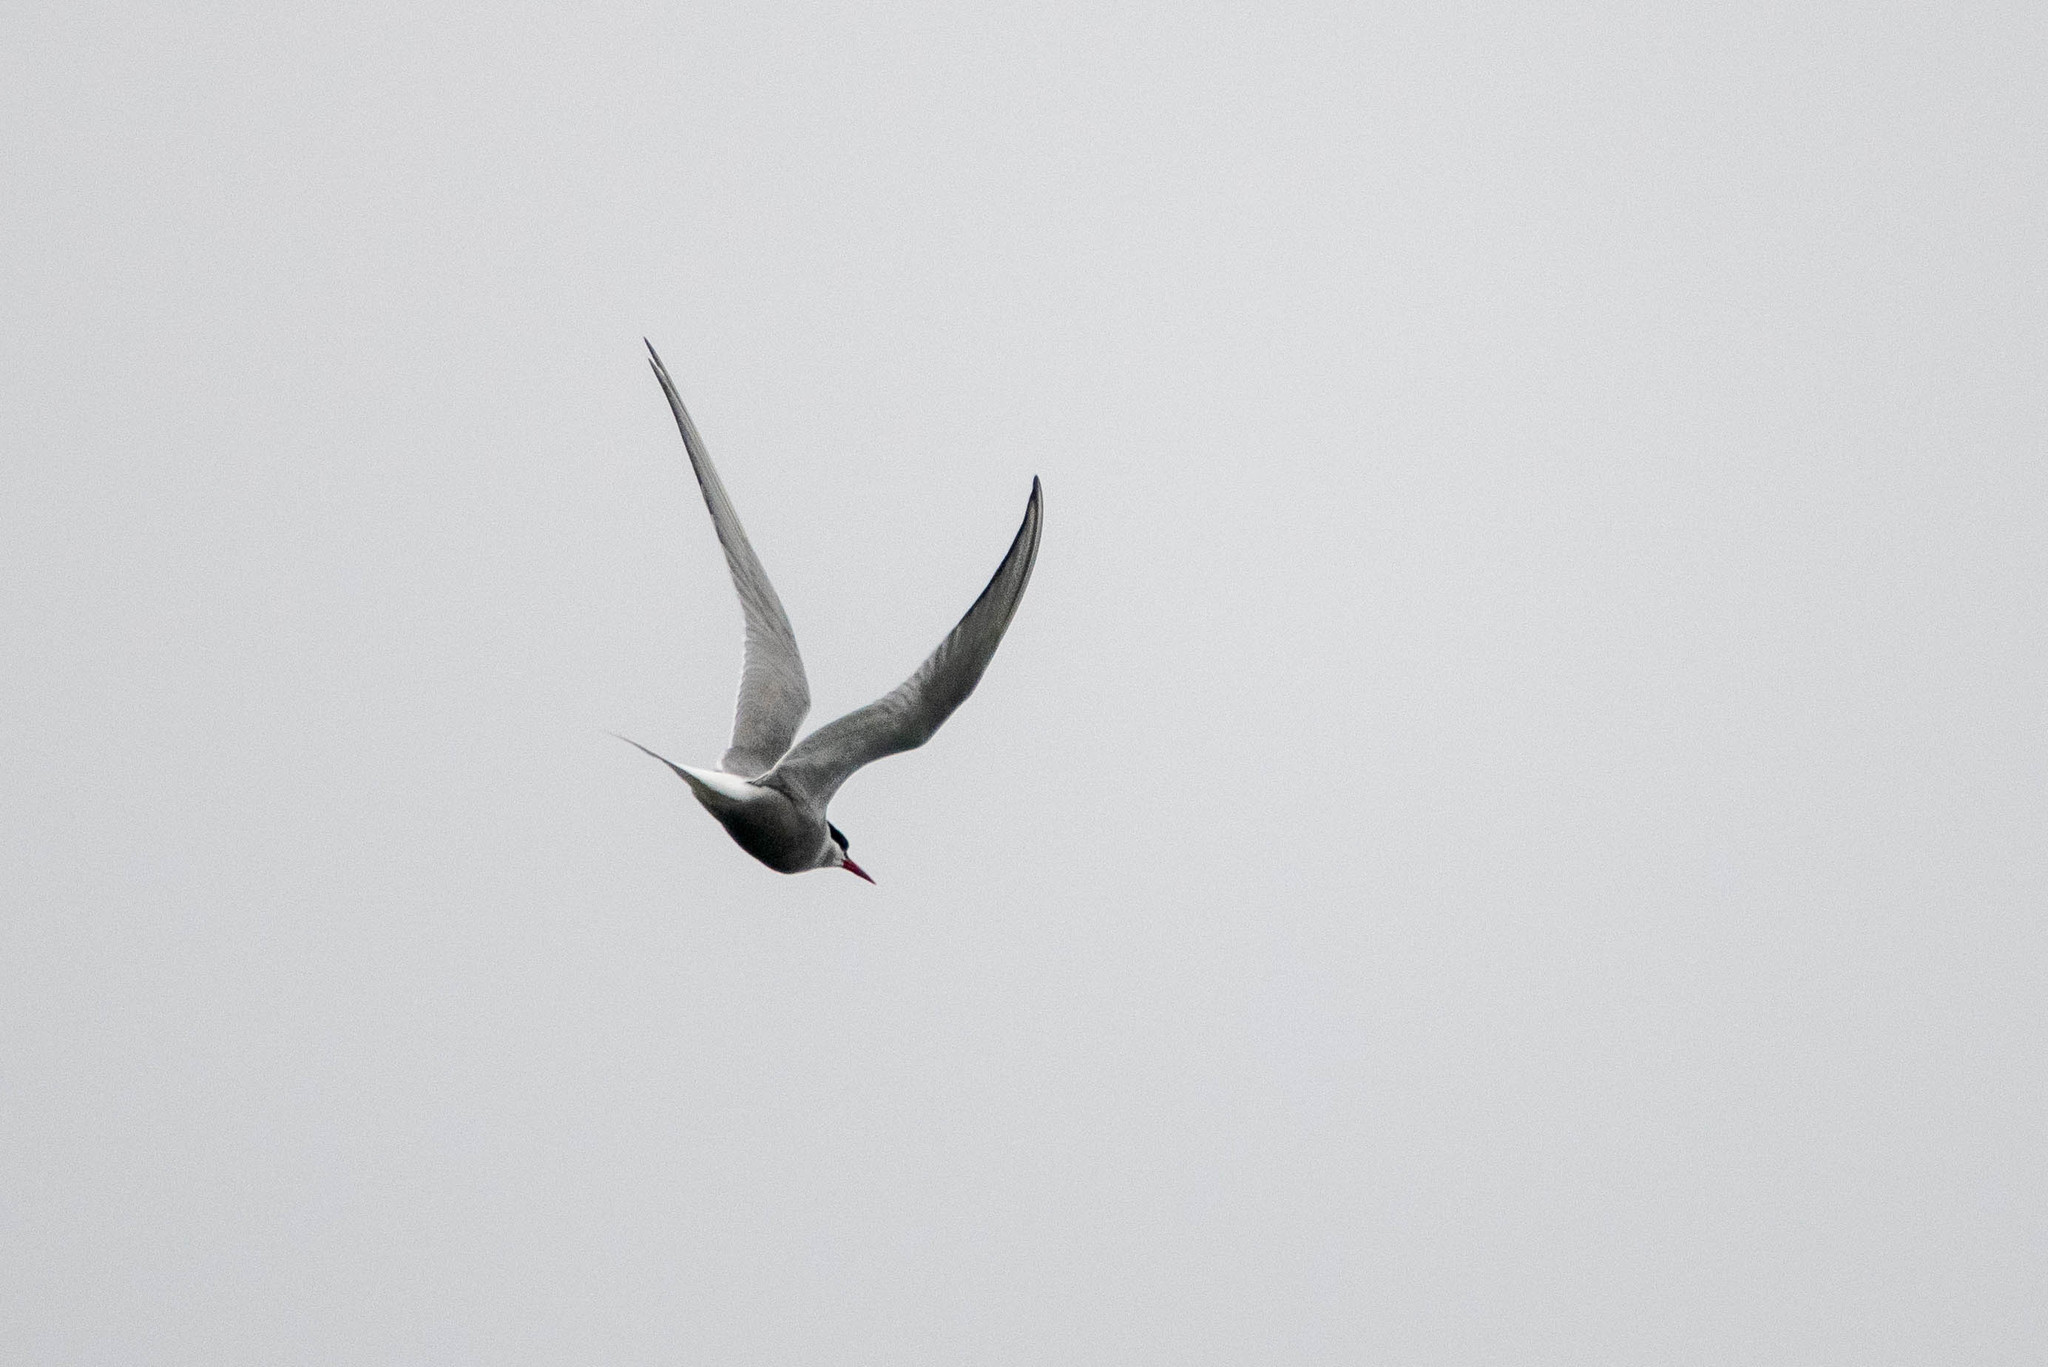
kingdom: Animalia
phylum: Chordata
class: Aves
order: Charadriiformes
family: Laridae
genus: Sterna
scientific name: Sterna paradisaea
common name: Arctic tern
